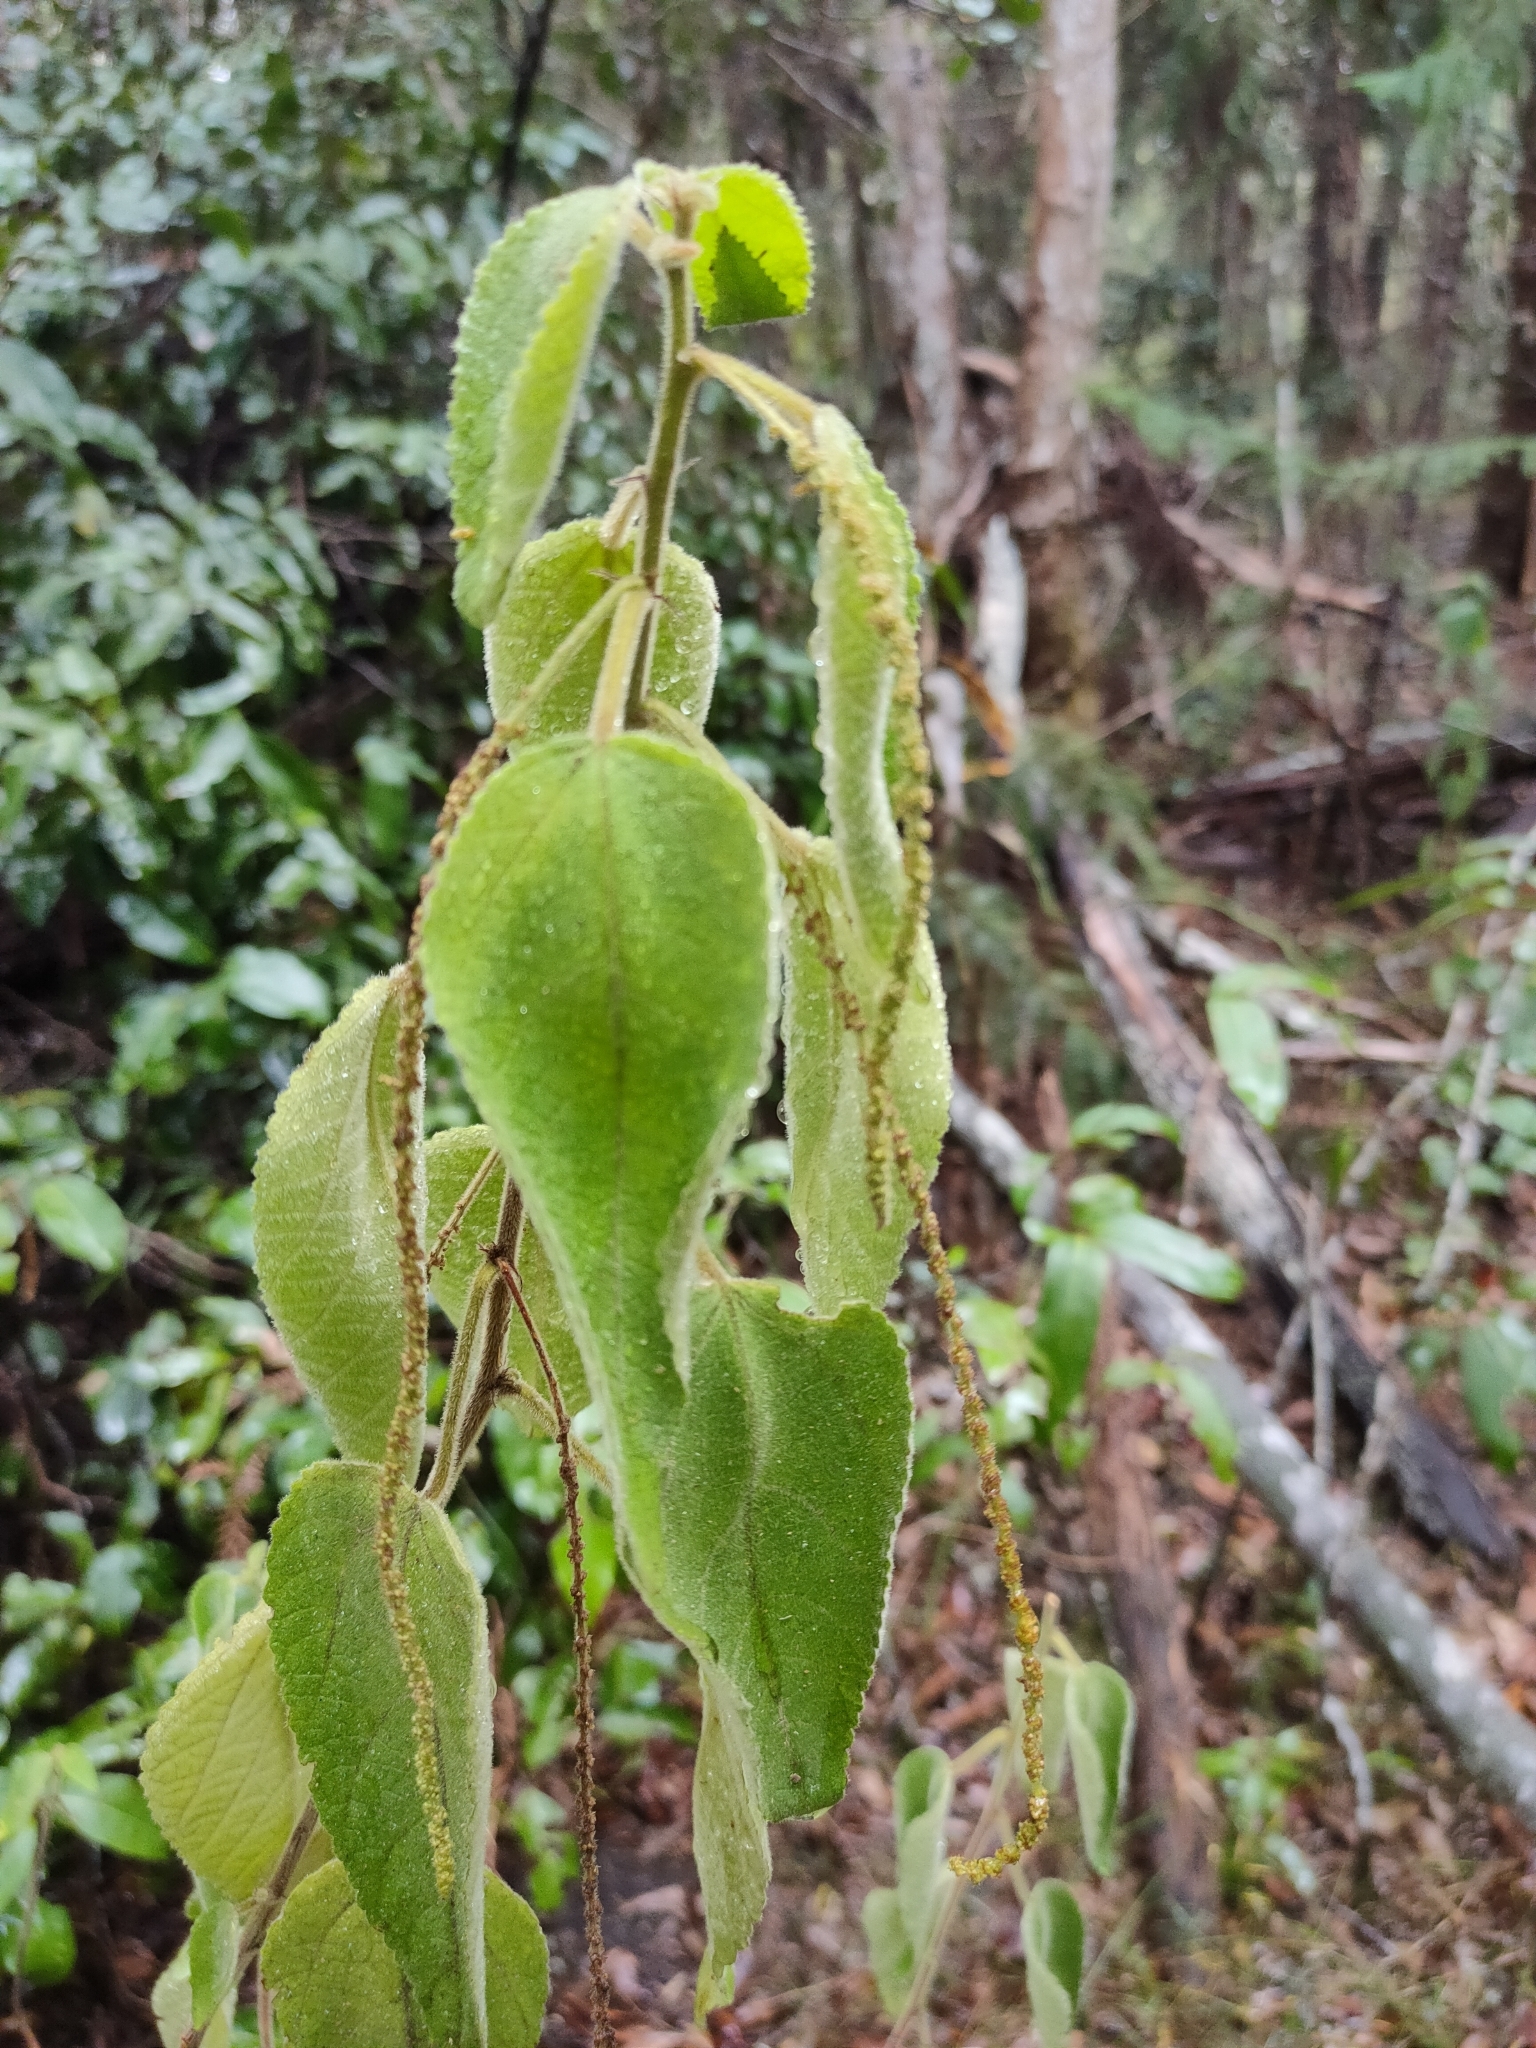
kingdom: Plantae
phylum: Tracheophyta
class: Magnoliopsida
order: Malpighiales
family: Euphorbiaceae
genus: Acalypha
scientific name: Acalypha nemorum
